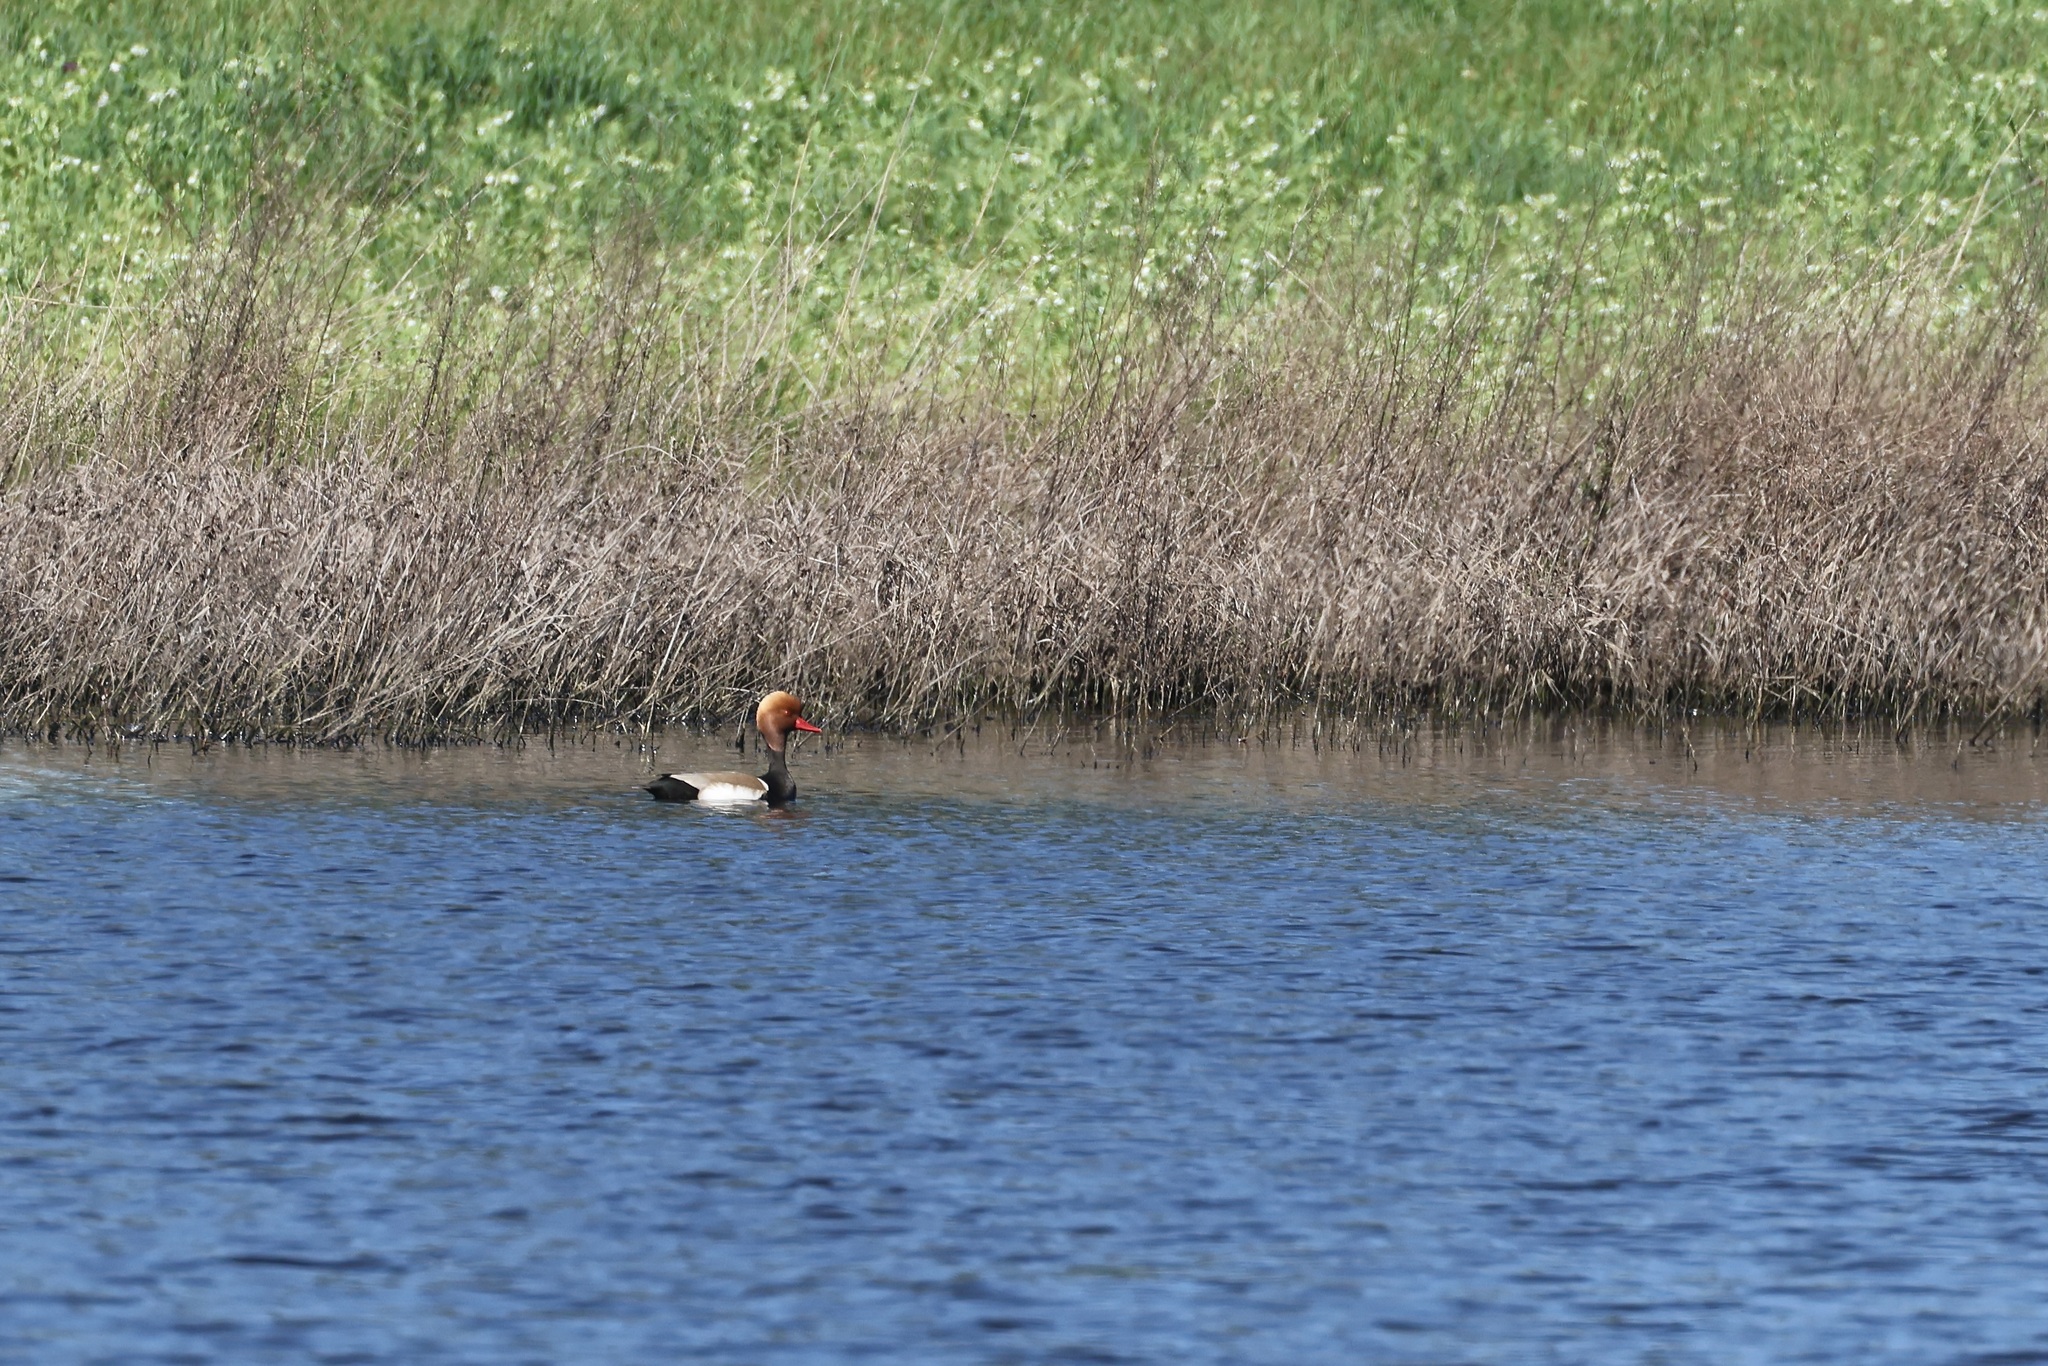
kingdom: Animalia
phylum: Chordata
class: Aves
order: Anseriformes
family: Anatidae
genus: Netta
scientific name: Netta rufina
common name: Red-crested pochard
